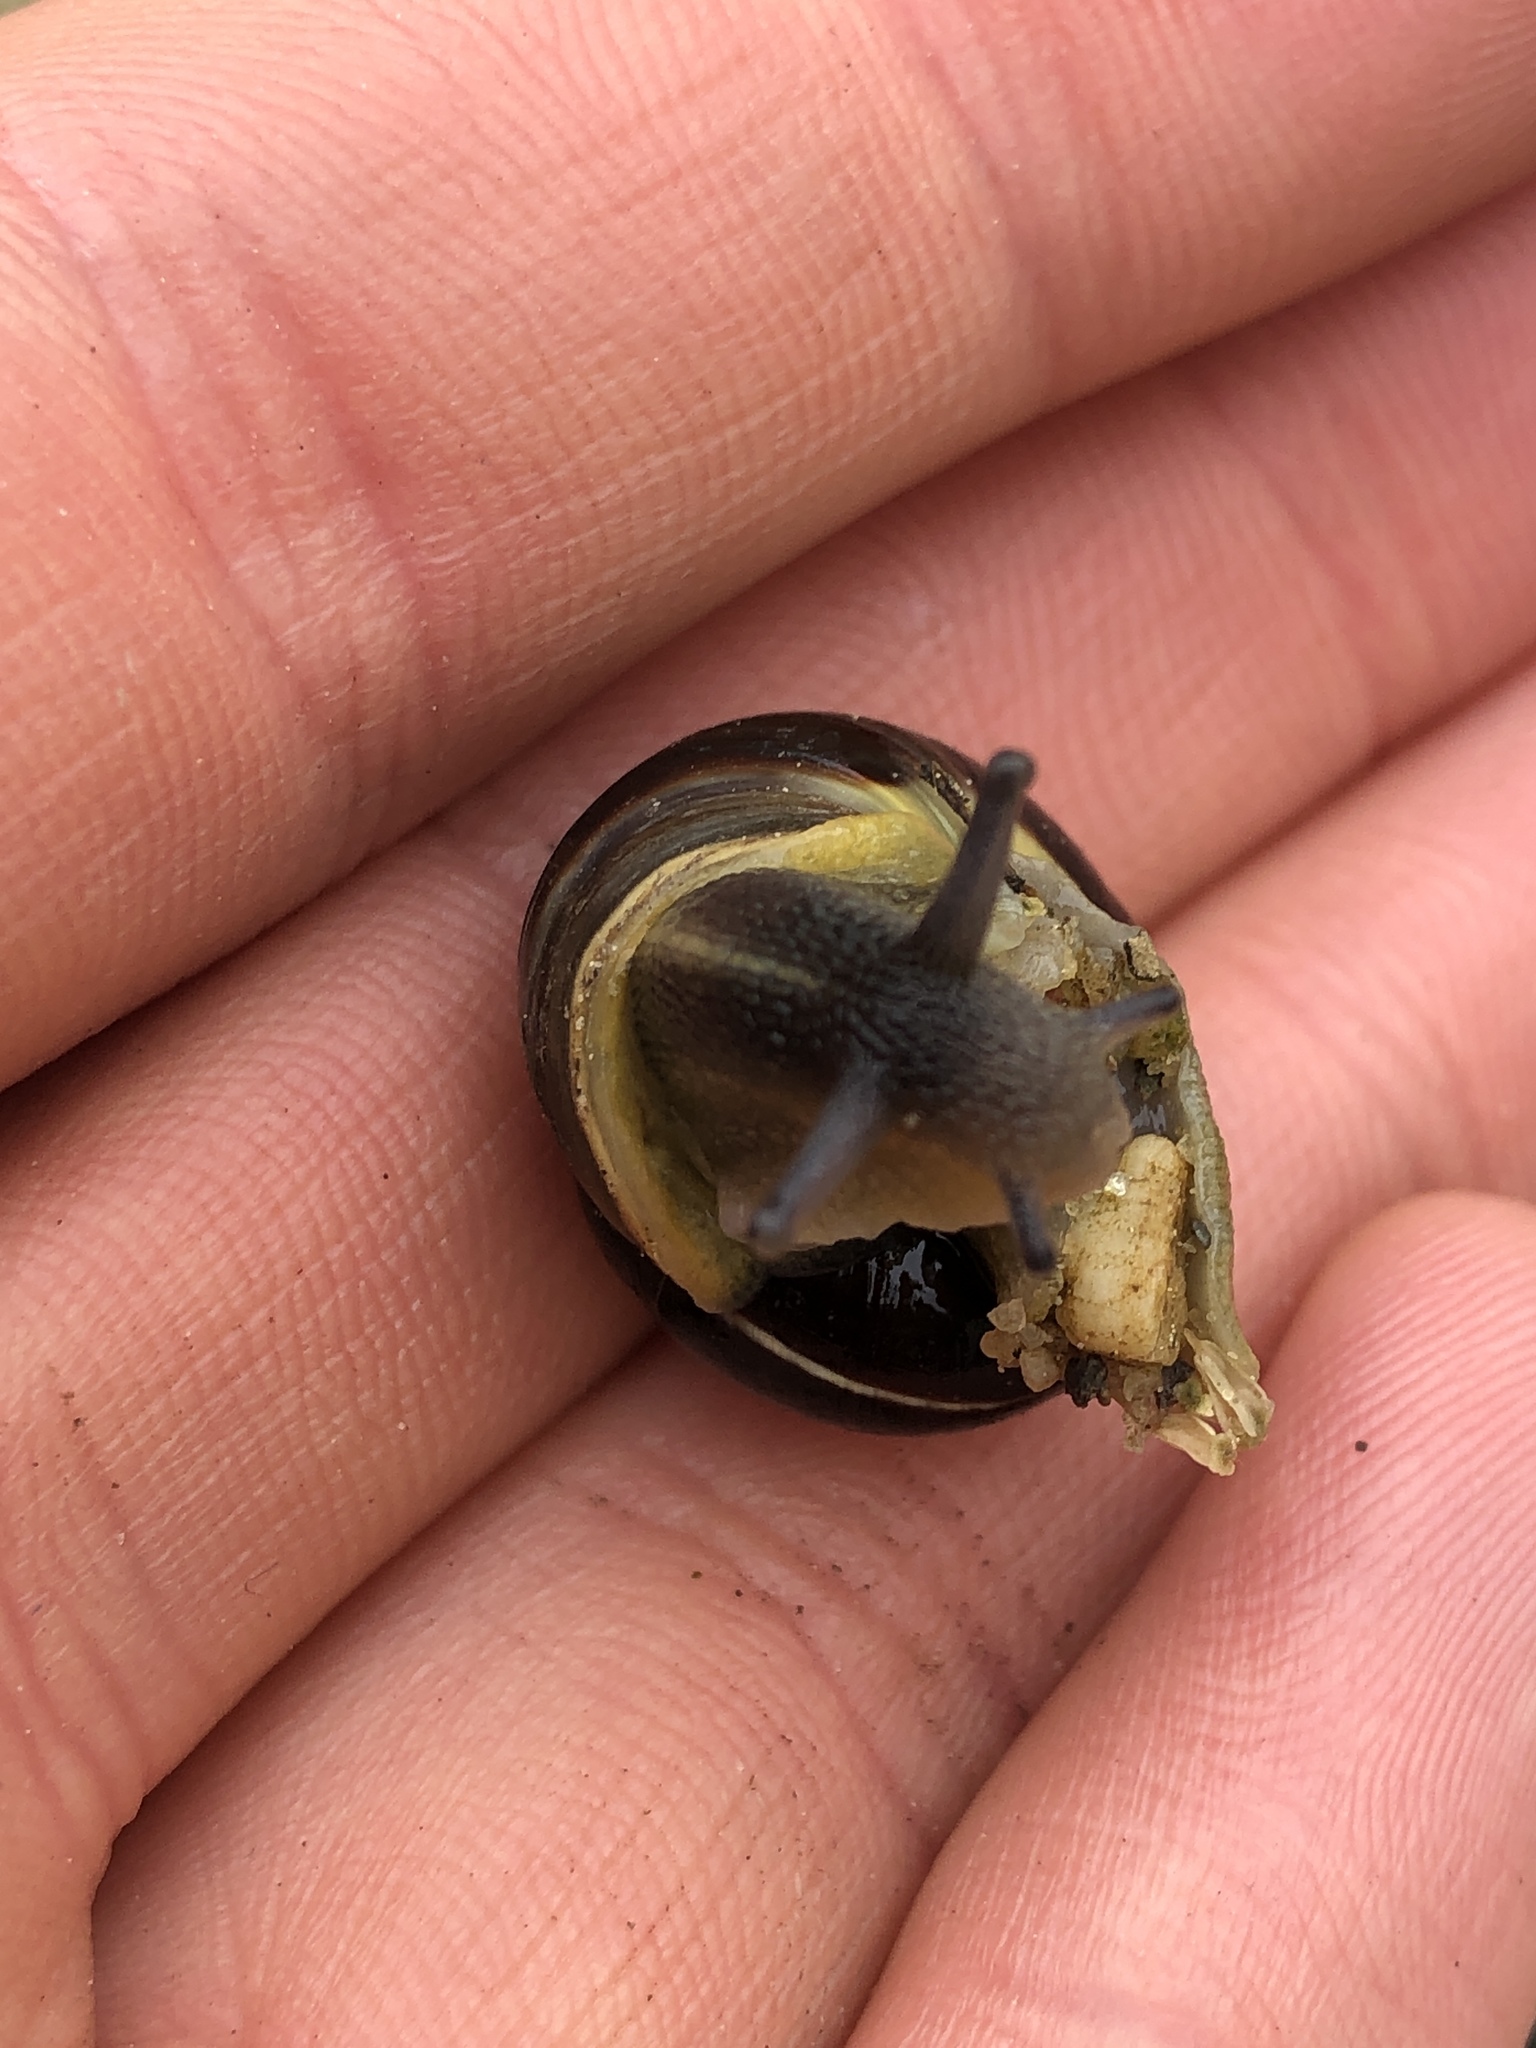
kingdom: Animalia
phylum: Mollusca
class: Gastropoda
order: Stylommatophora
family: Helicidae
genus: Cepaea
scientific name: Cepaea nemoralis
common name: Grovesnail
